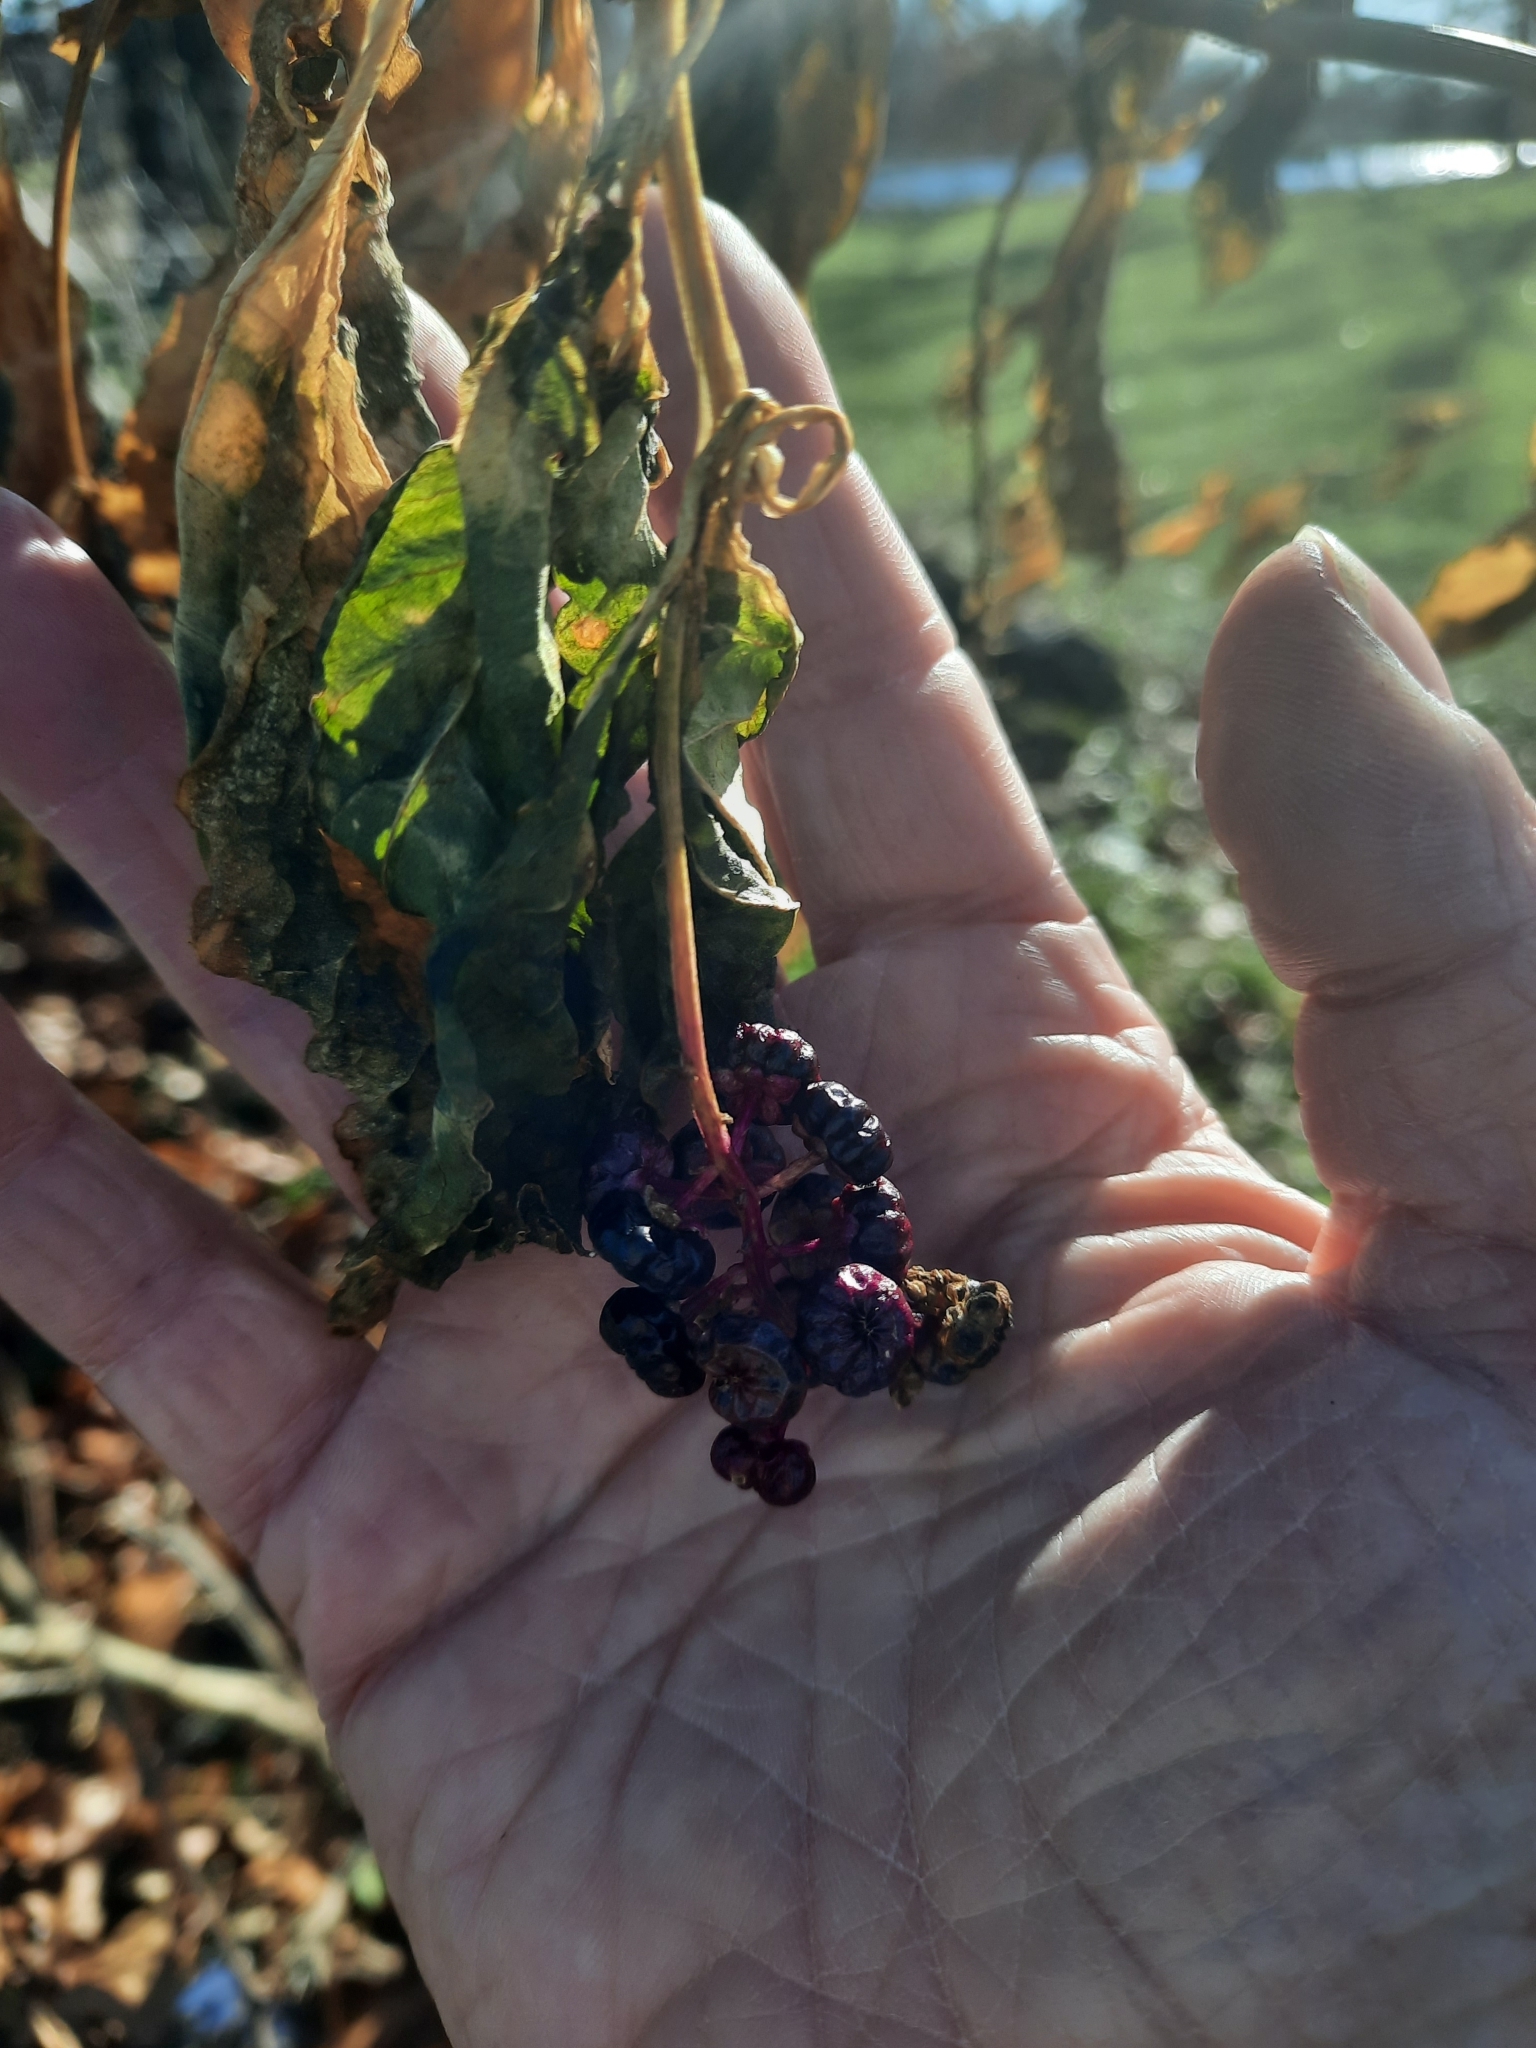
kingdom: Plantae
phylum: Tracheophyta
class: Magnoliopsida
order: Caryophyllales
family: Phytolaccaceae
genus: Phytolacca
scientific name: Phytolacca americana
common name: American pokeweed
